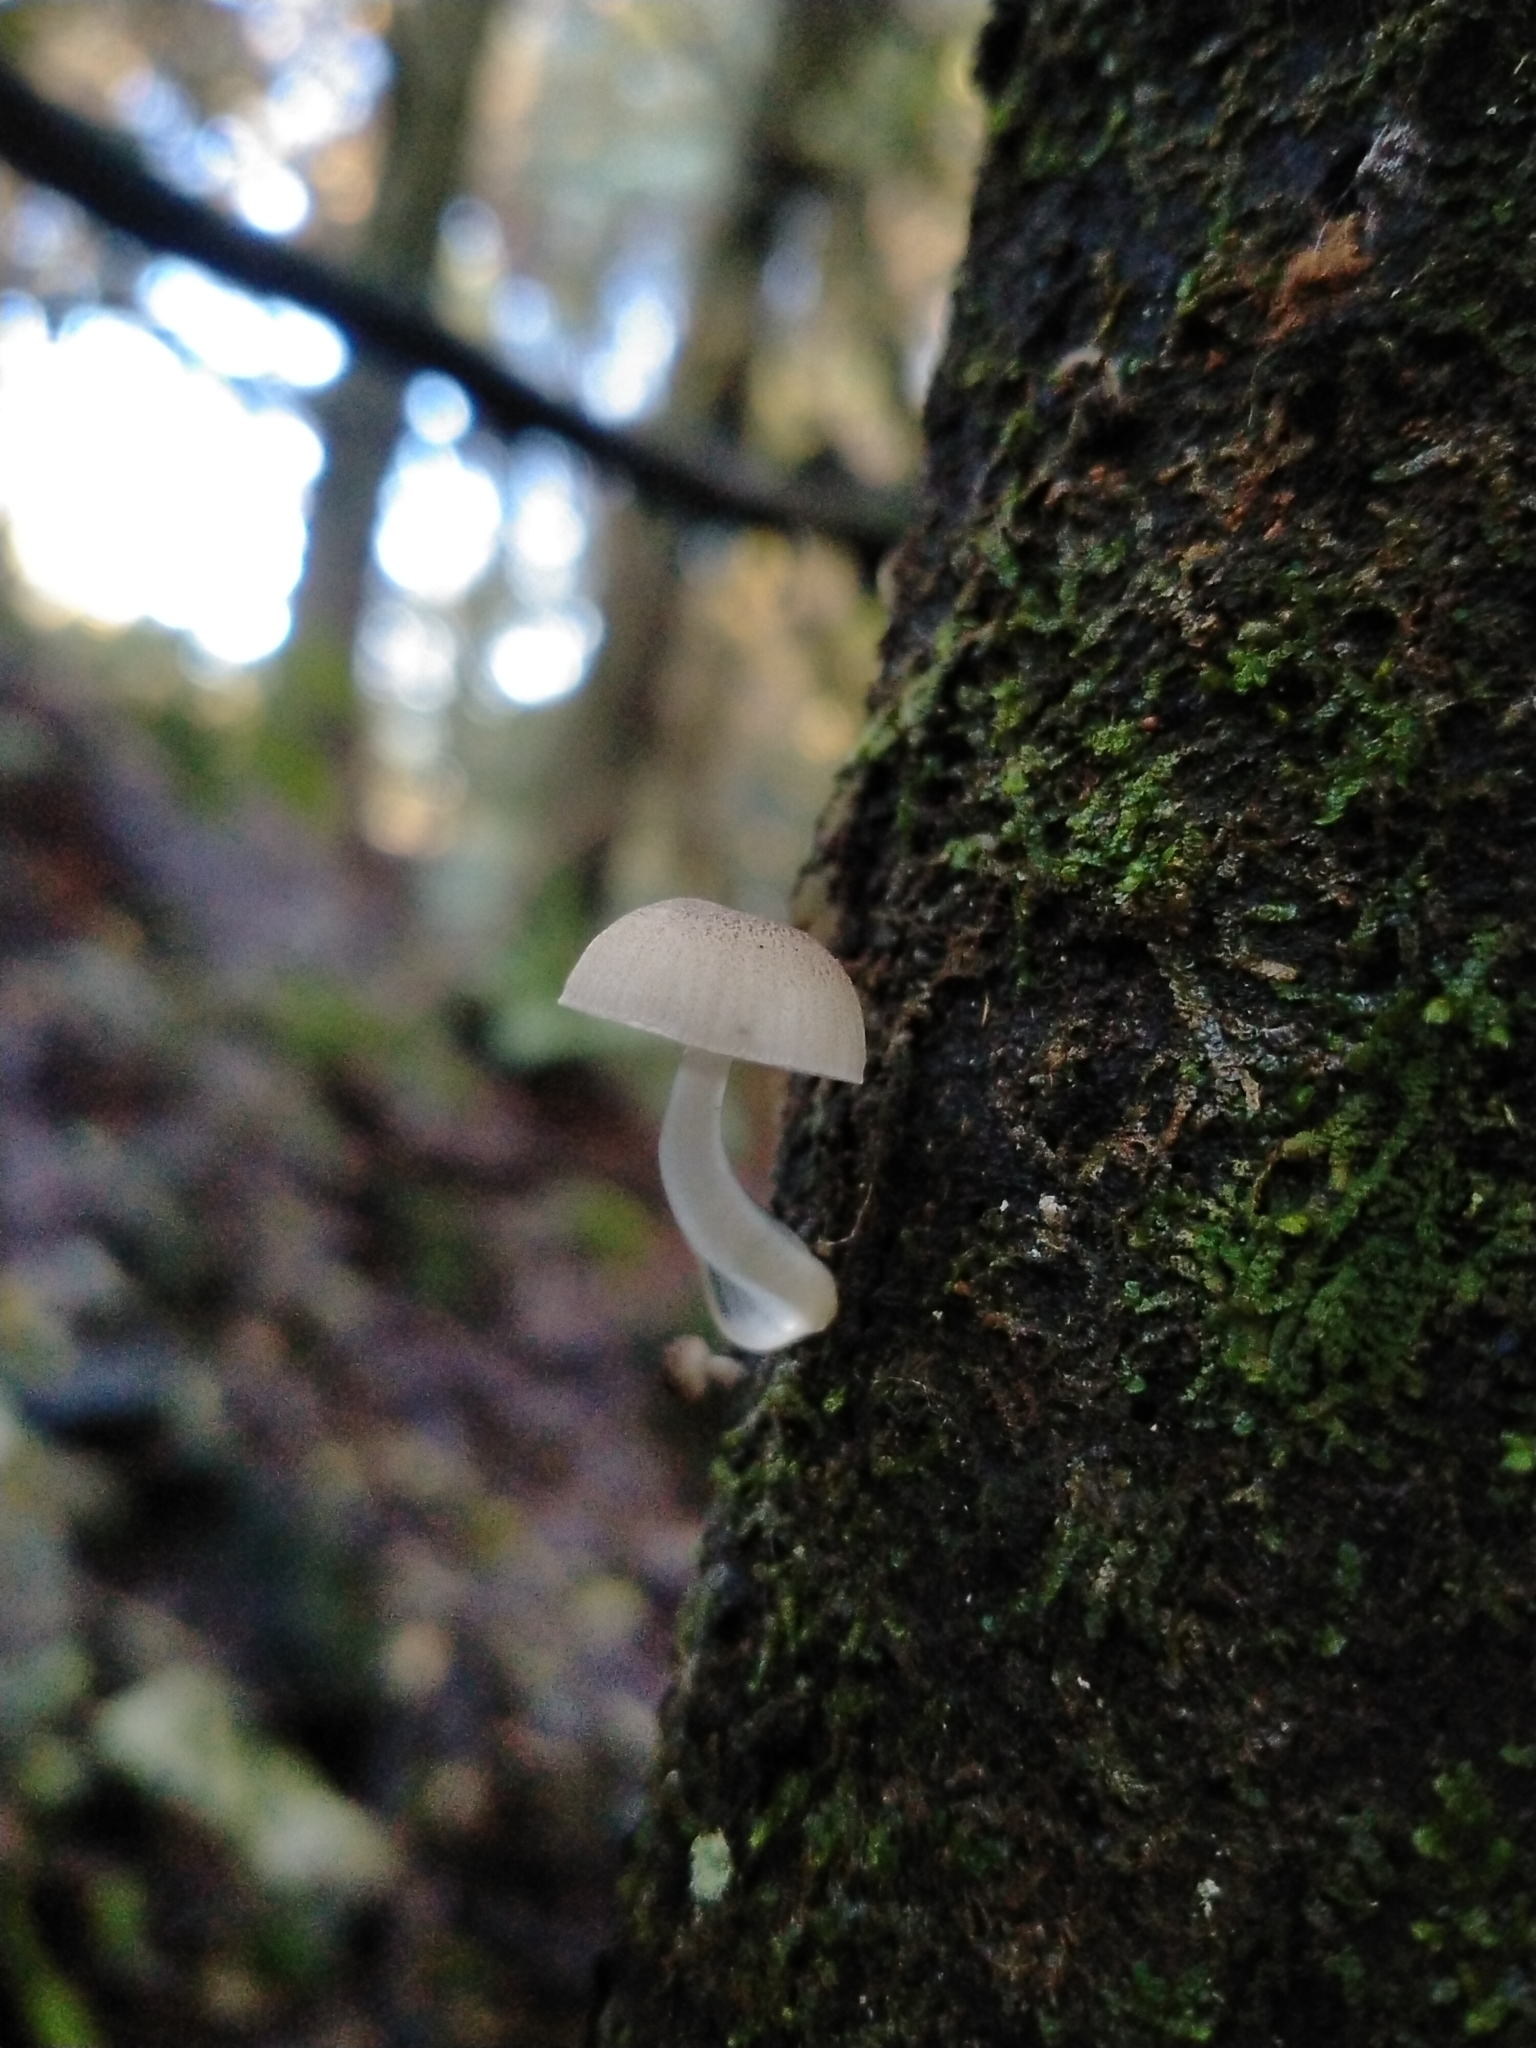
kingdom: Fungi
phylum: Basidiomycota
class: Agaricomycetes
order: Agaricales
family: Mycenaceae
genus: Roridomyces
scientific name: Roridomyces austrororidus
